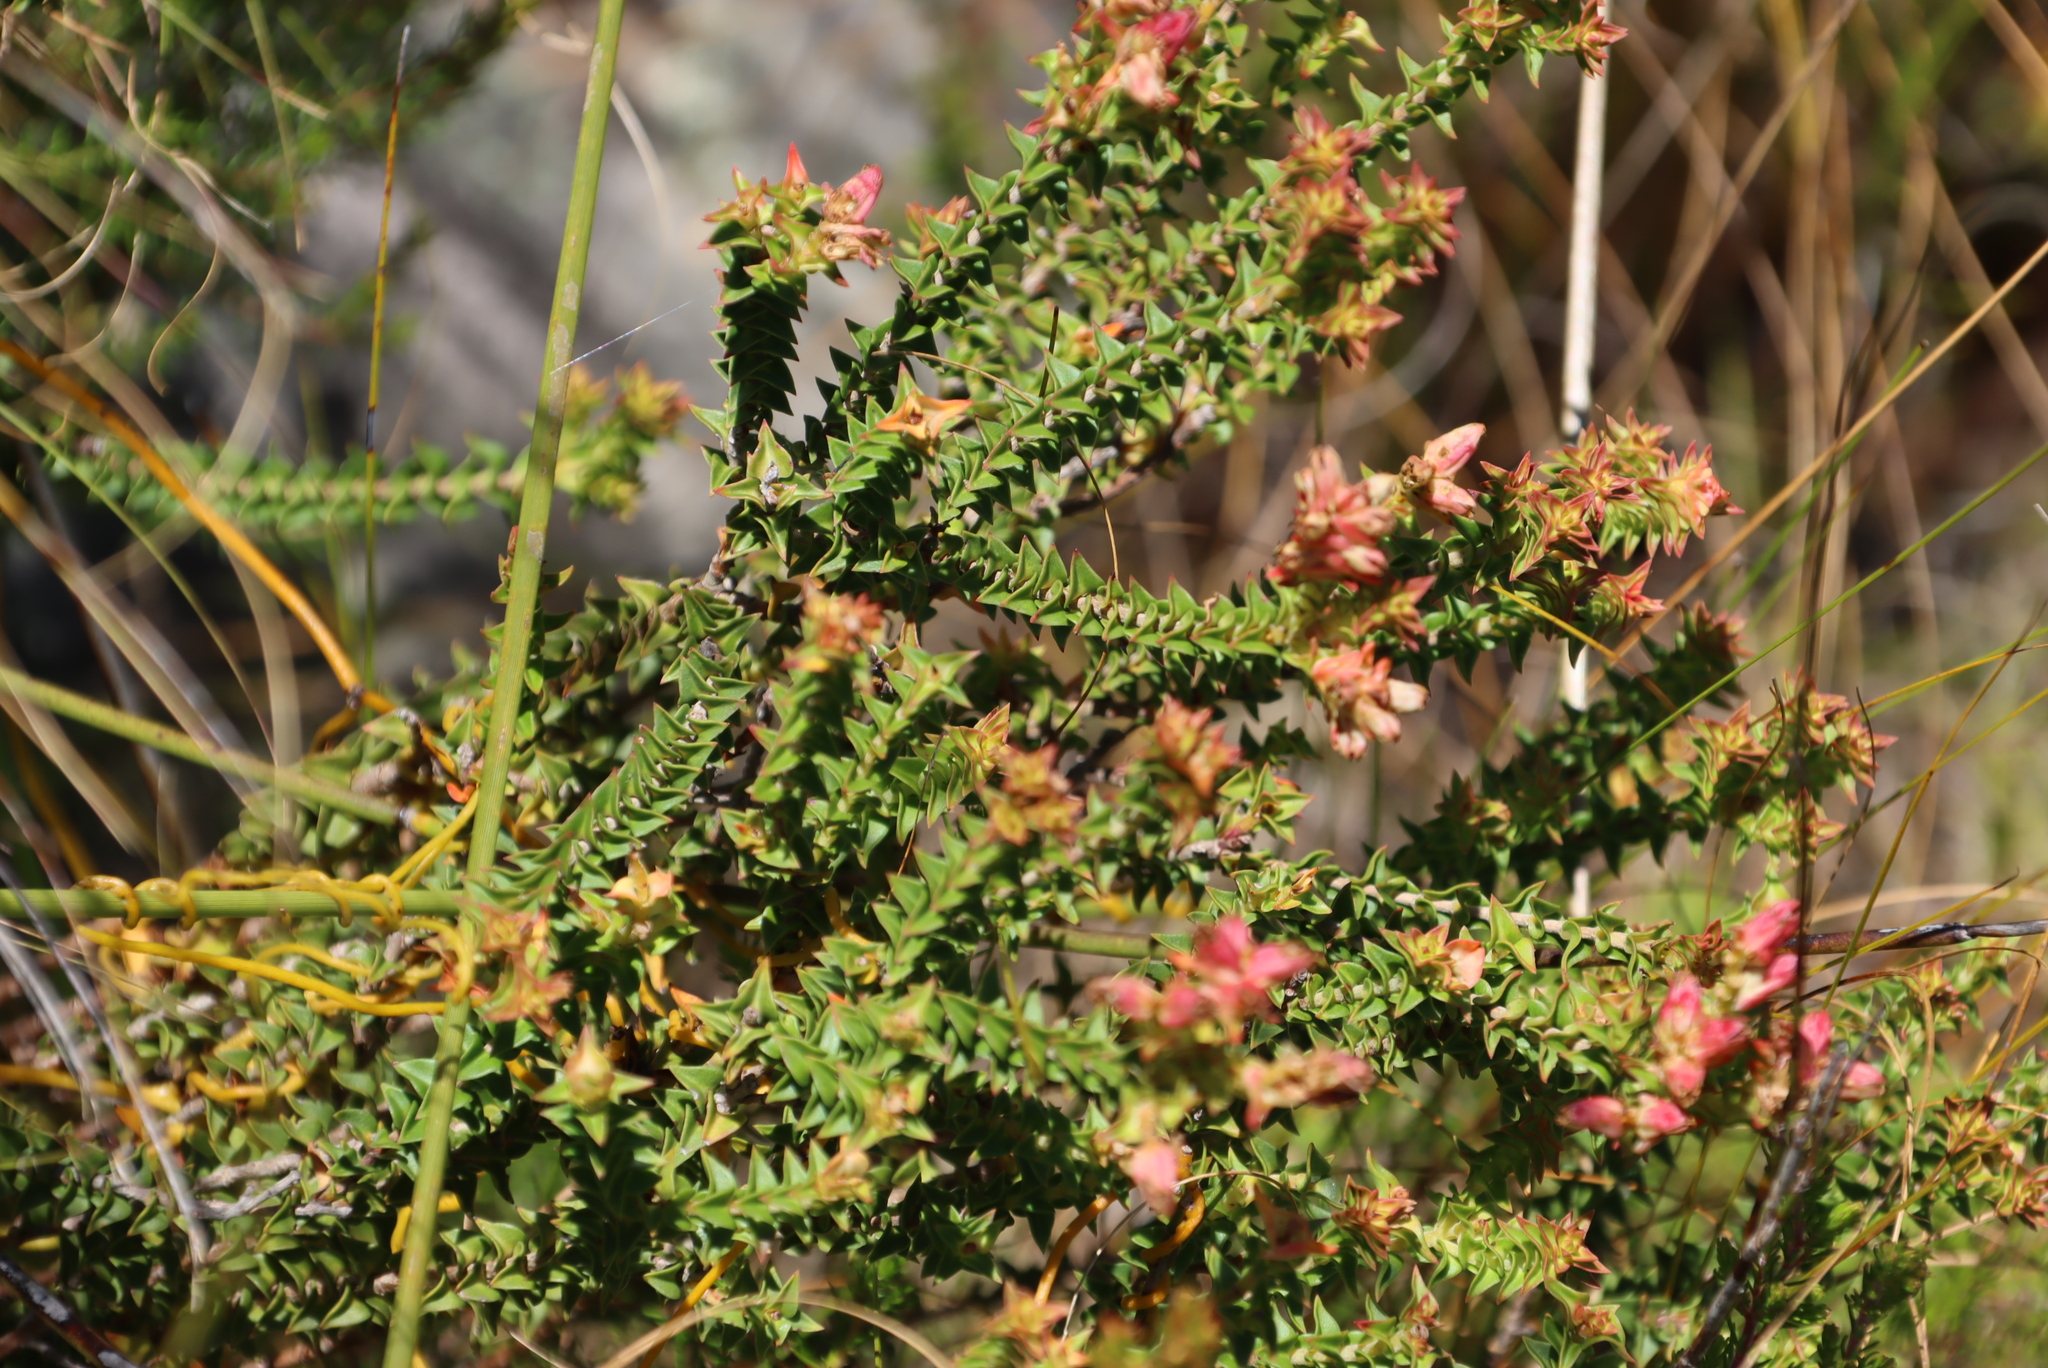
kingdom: Plantae
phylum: Tracheophyta
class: Magnoliopsida
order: Myrtales
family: Penaeaceae
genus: Penaea
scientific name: Penaea mucronata
